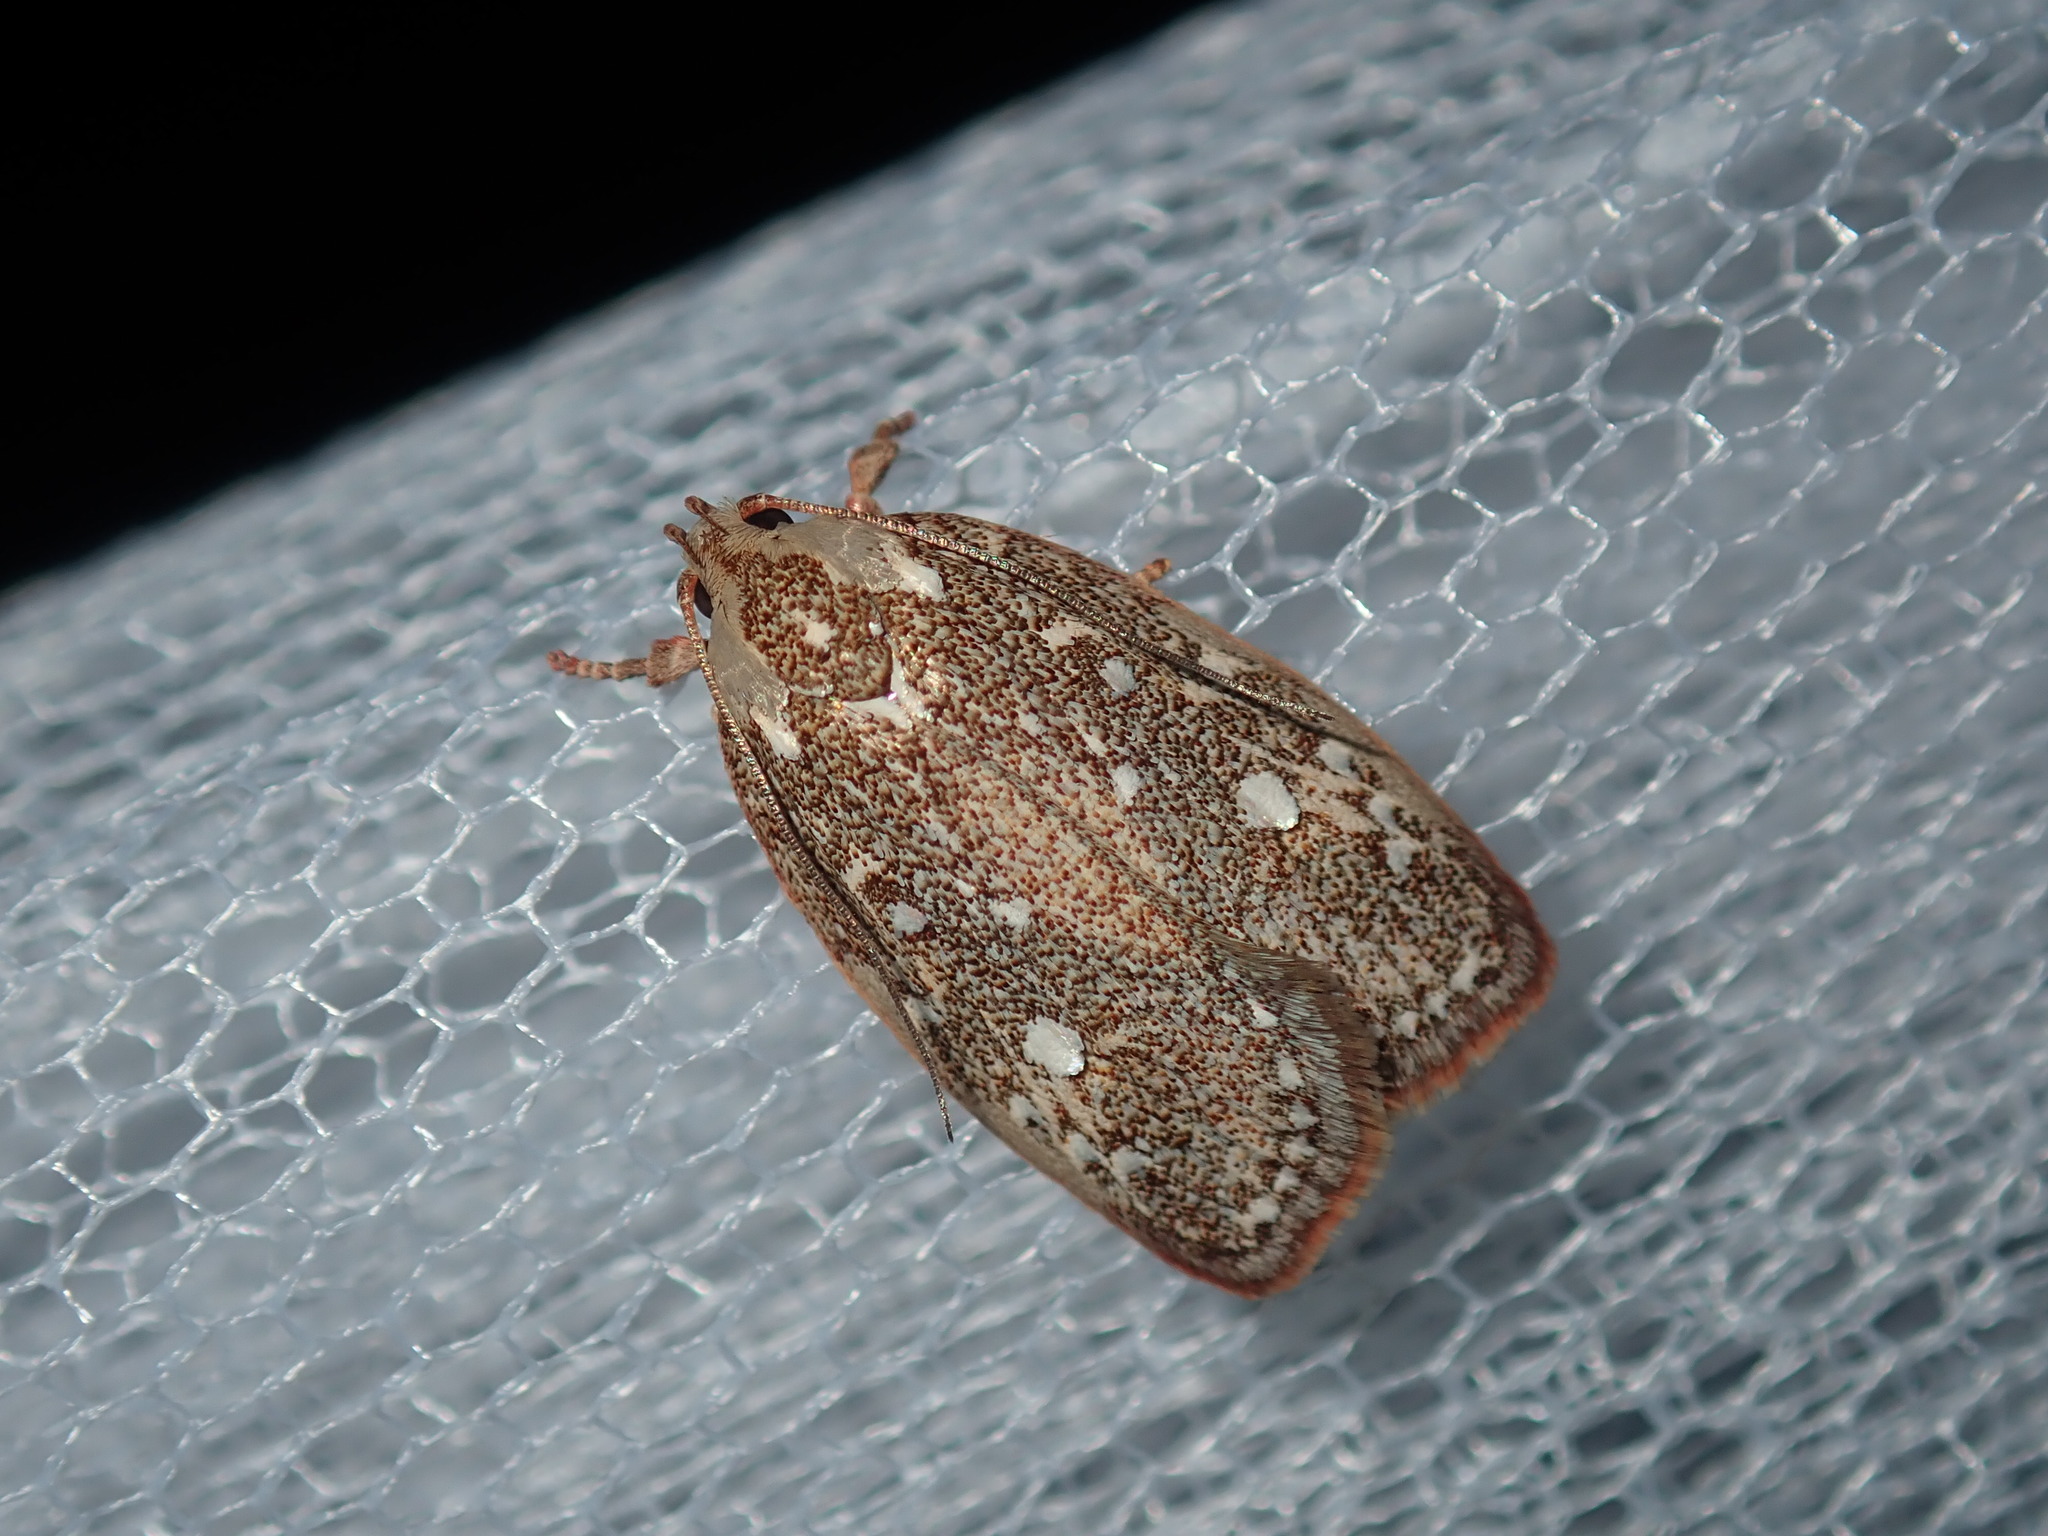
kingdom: Animalia
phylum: Arthropoda
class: Insecta
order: Lepidoptera
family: Oecophoridae
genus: Euchaetis
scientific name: Euchaetis metallota
